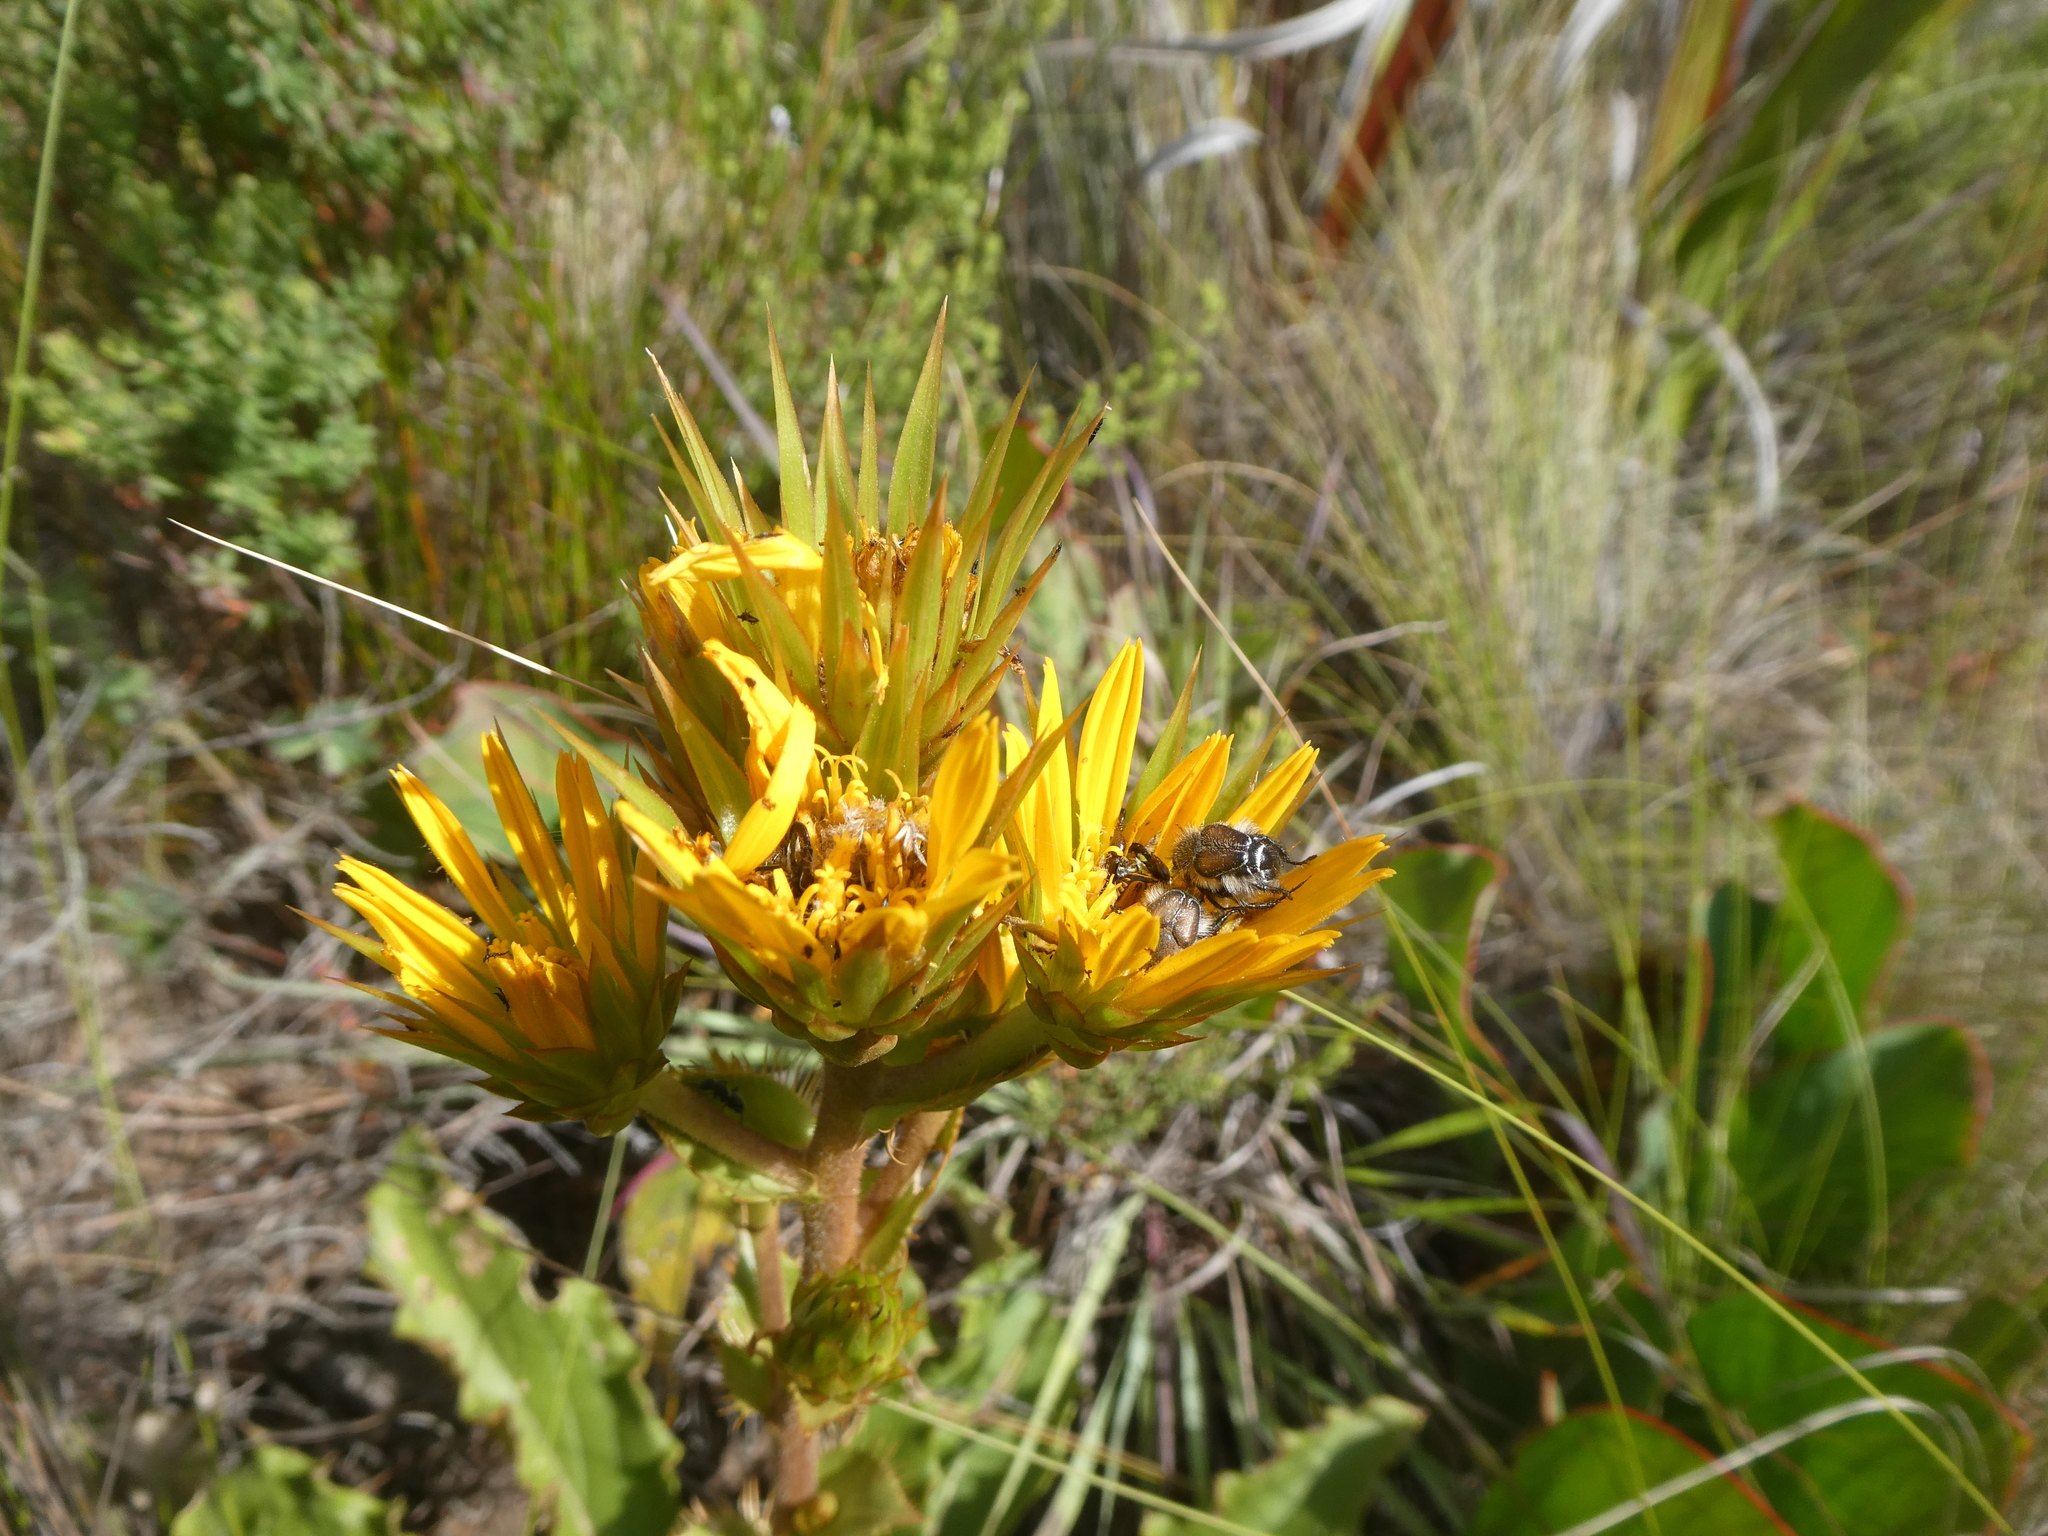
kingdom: Plantae
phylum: Tracheophyta
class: Magnoliopsida
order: Asterales
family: Asteraceae
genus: Berkheya
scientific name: Berkheya herbacea
